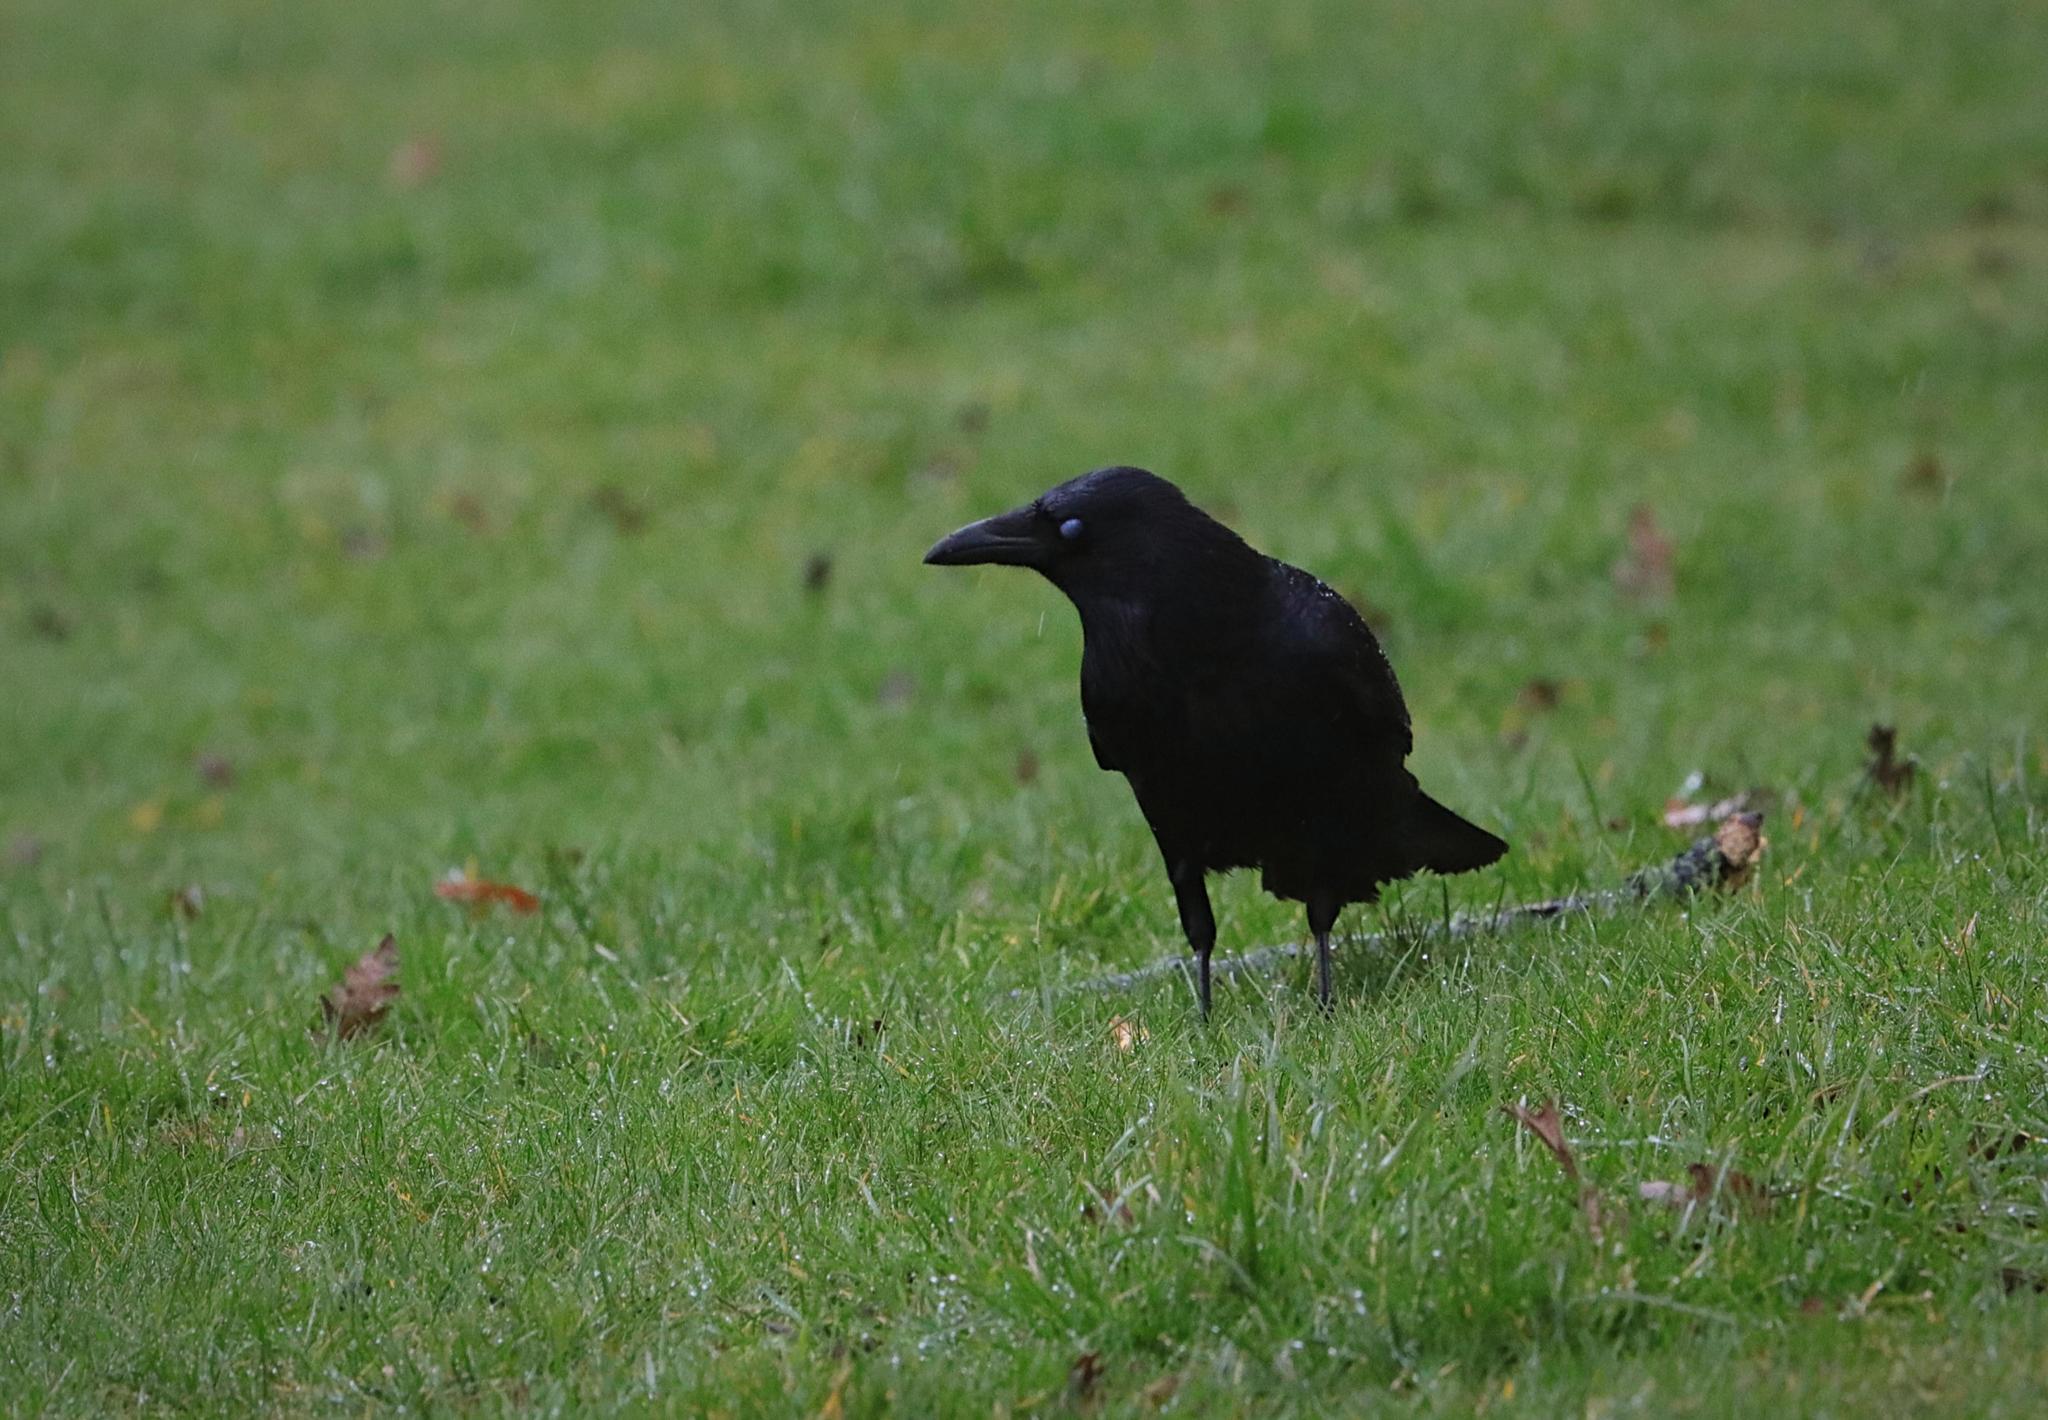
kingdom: Animalia
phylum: Chordata
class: Aves
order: Passeriformes
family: Corvidae
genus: Corvus
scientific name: Corvus corone
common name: Carrion crow
